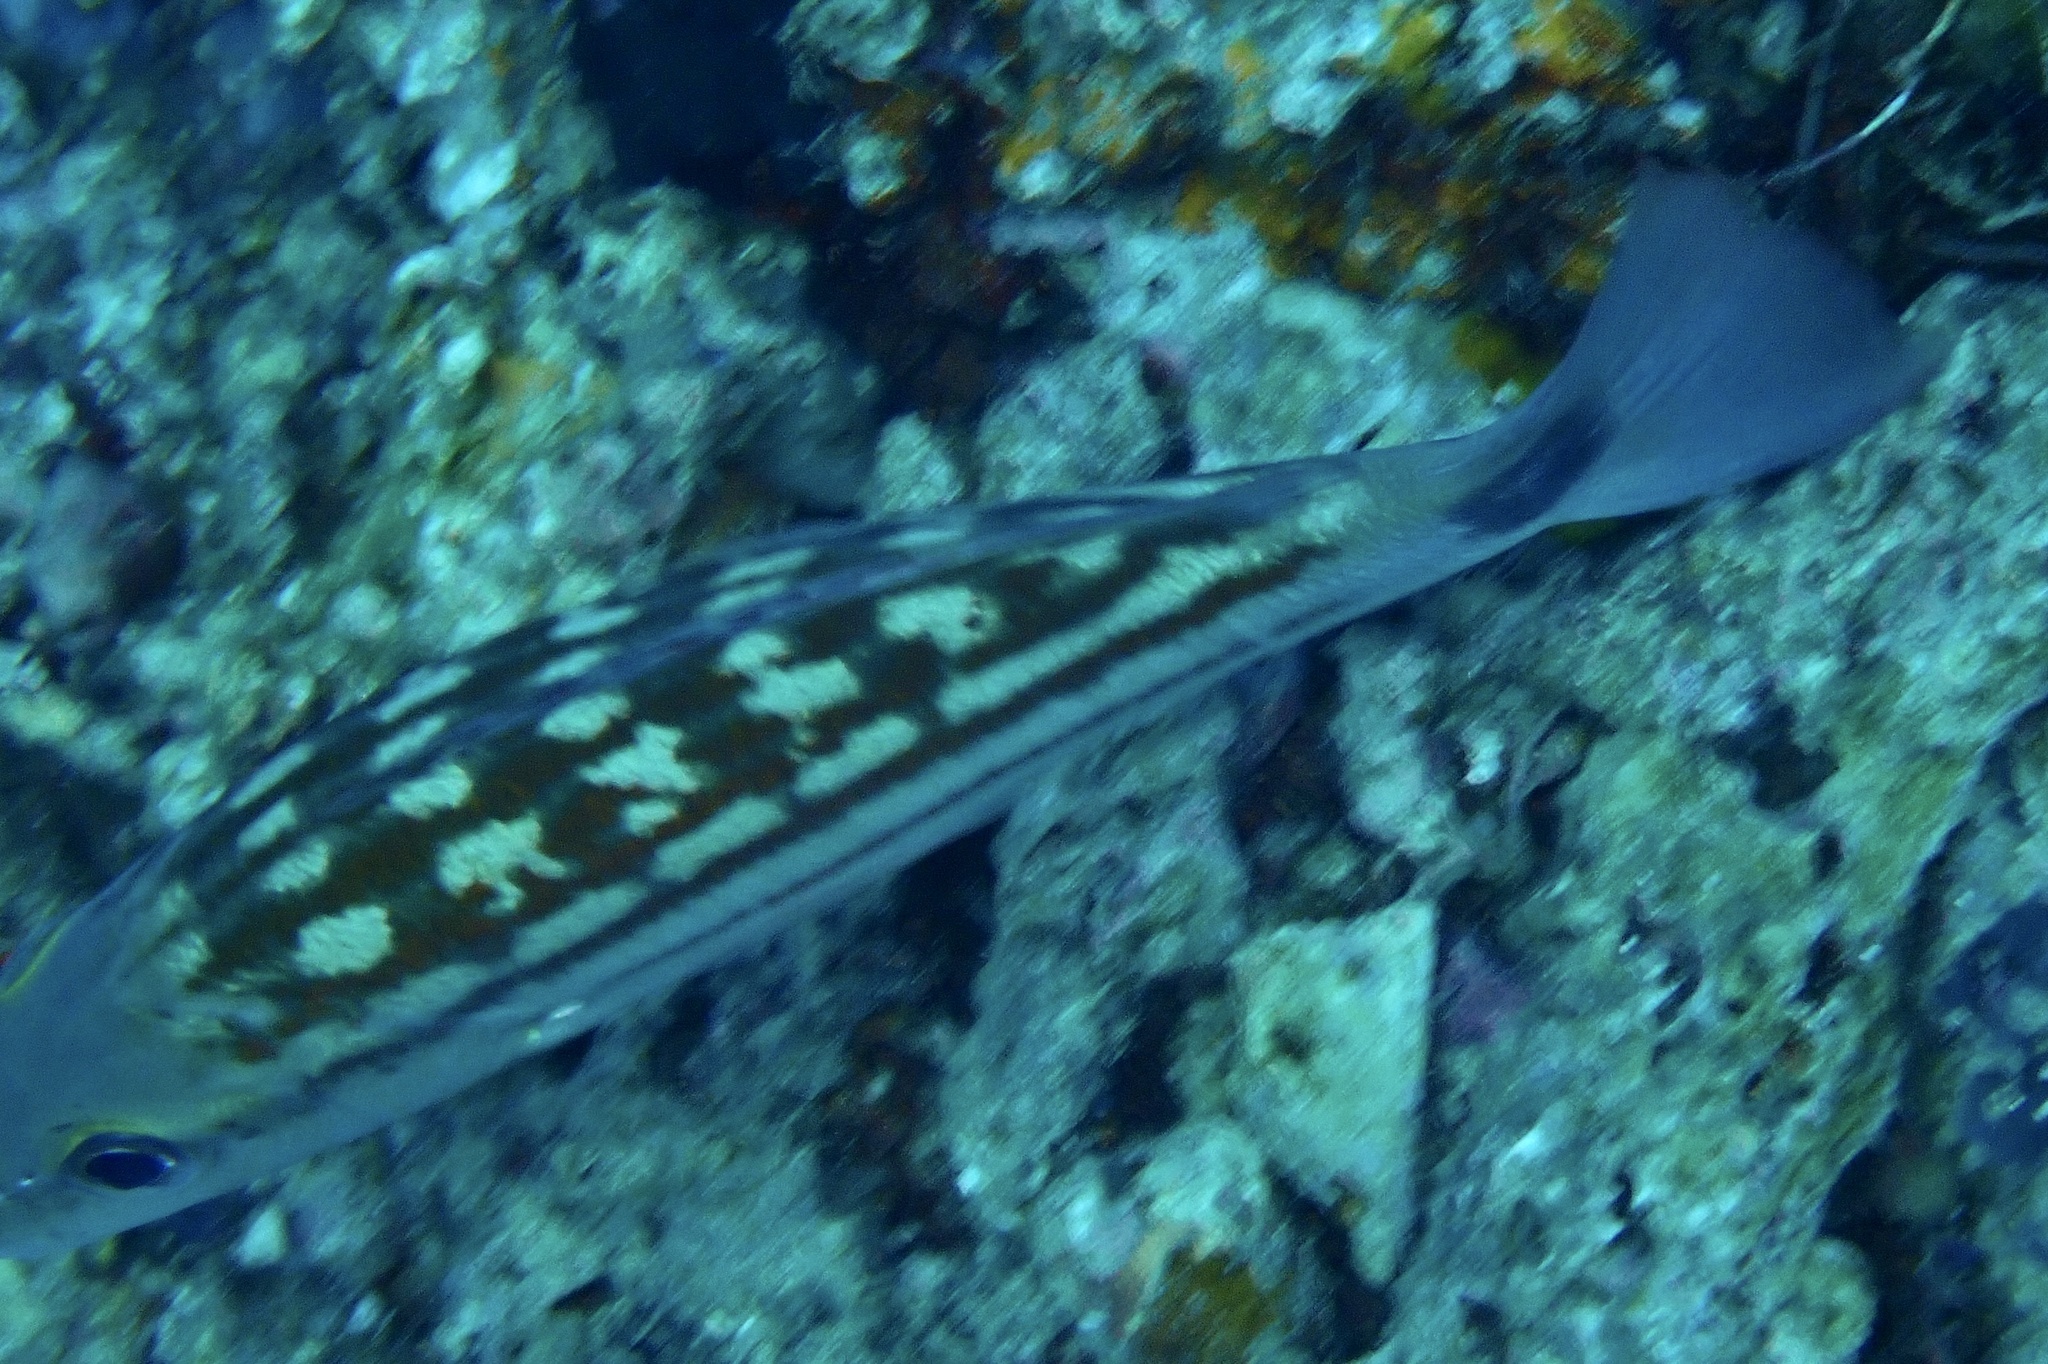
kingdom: Animalia
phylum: Chordata
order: Perciformes
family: Lutjanidae
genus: Lutjanus
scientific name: Lutjanus decussatus
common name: Checkered snapper
